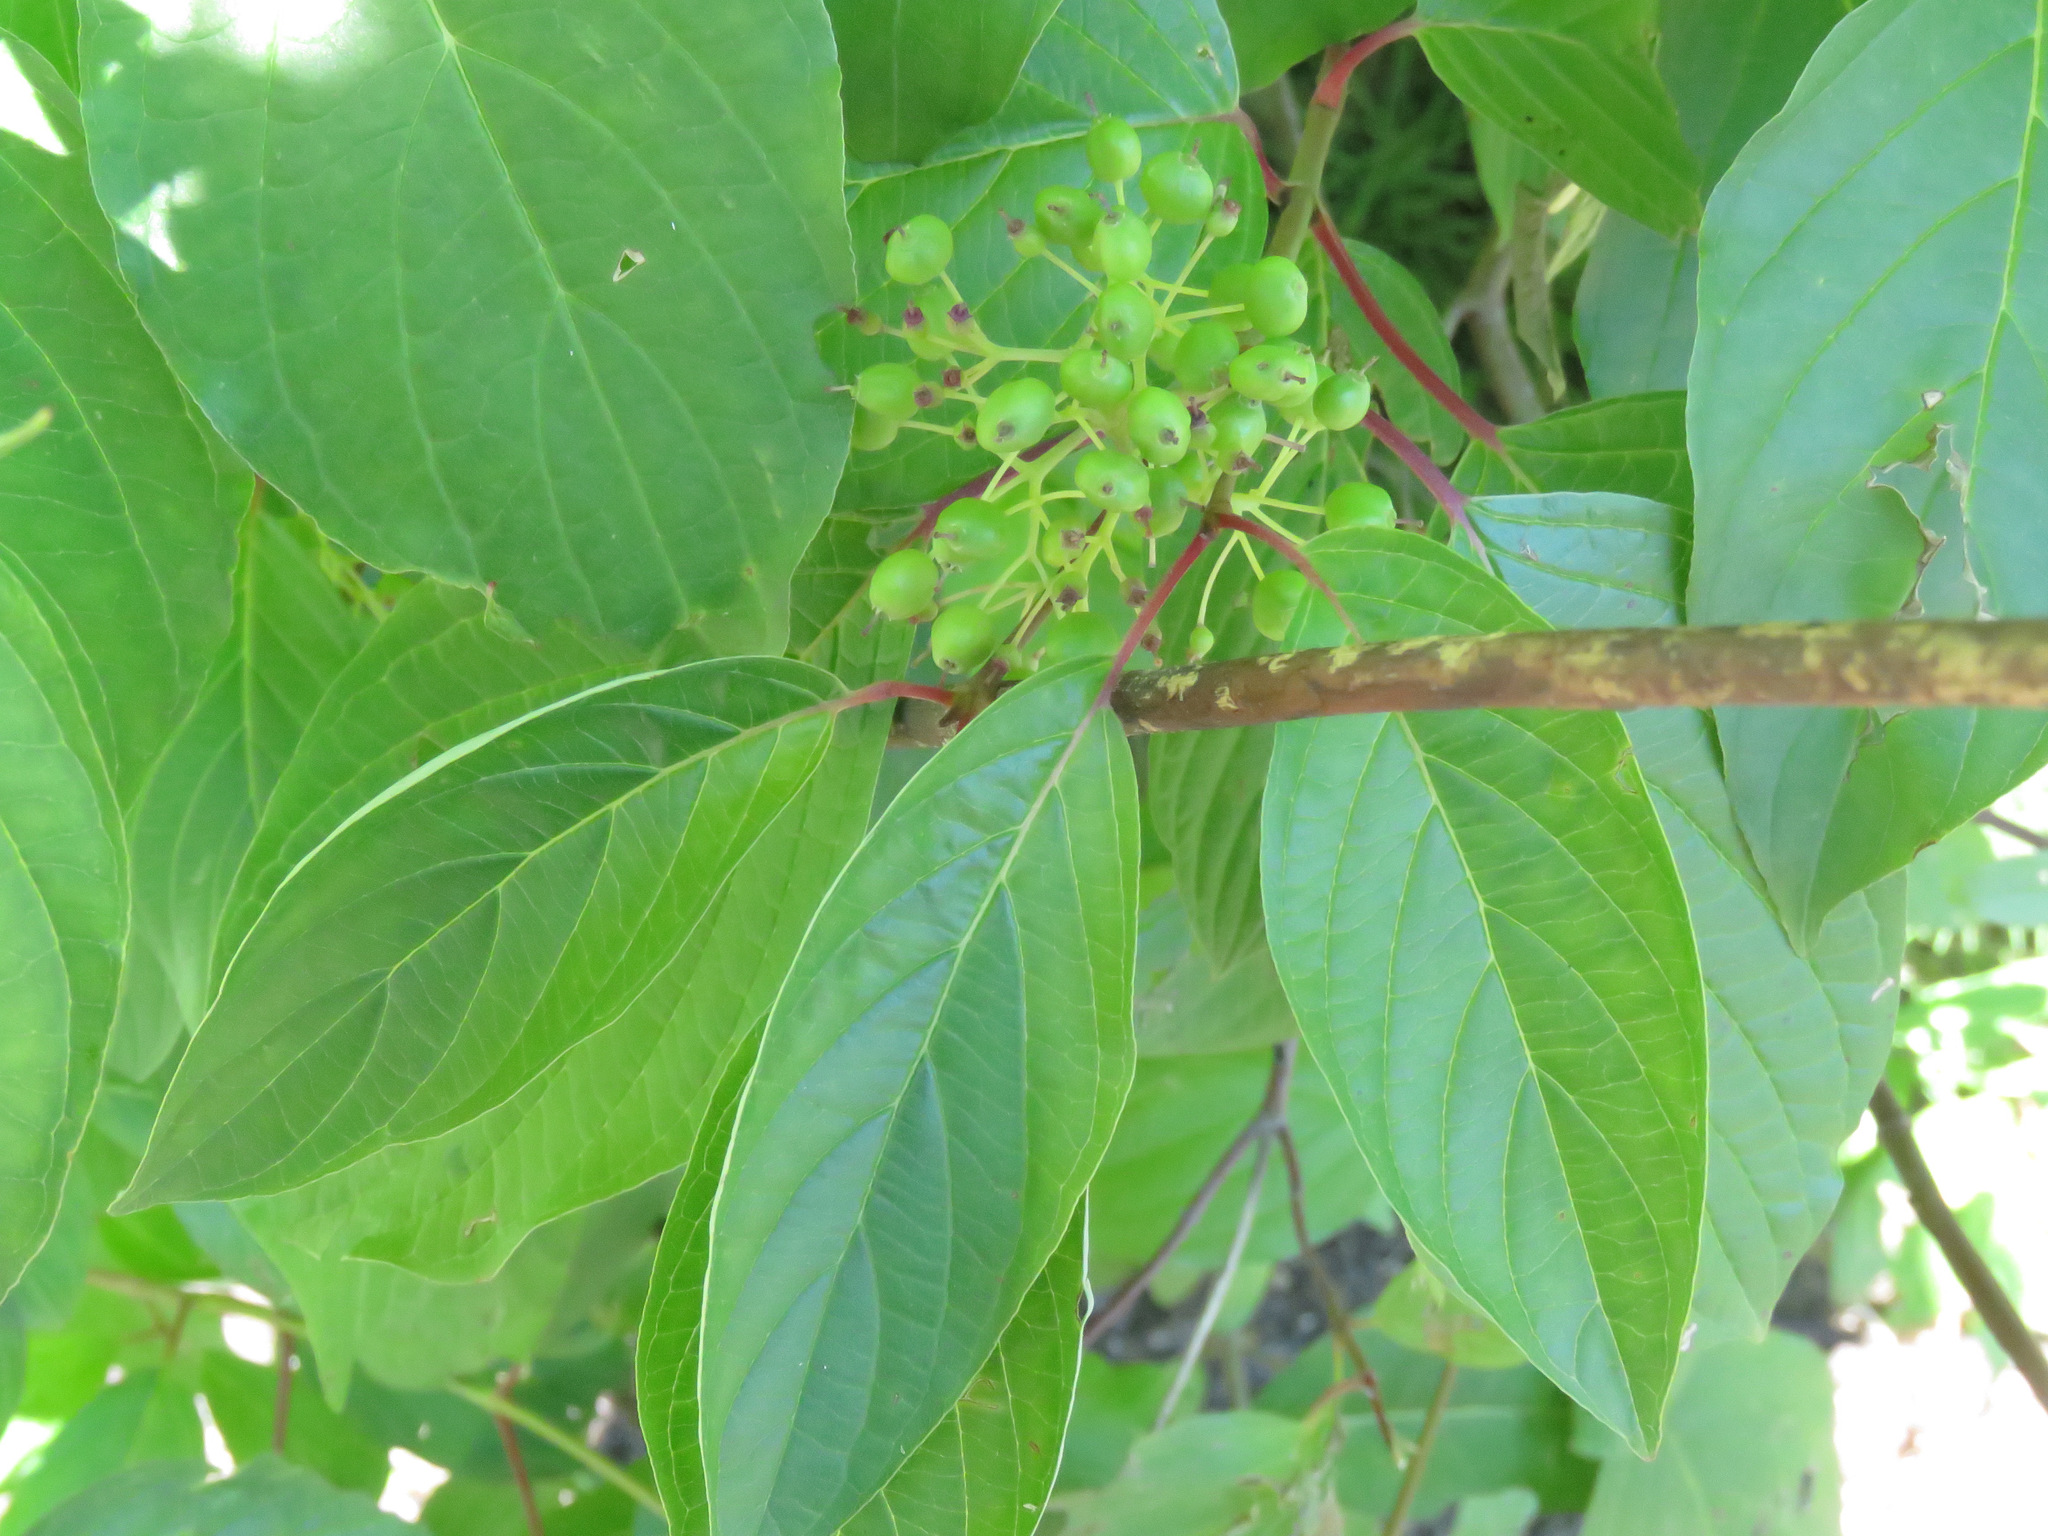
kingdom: Plantae
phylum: Tracheophyta
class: Magnoliopsida
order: Cornales
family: Cornaceae
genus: Cornus
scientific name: Cornus sericea
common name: Red-osier dogwood
